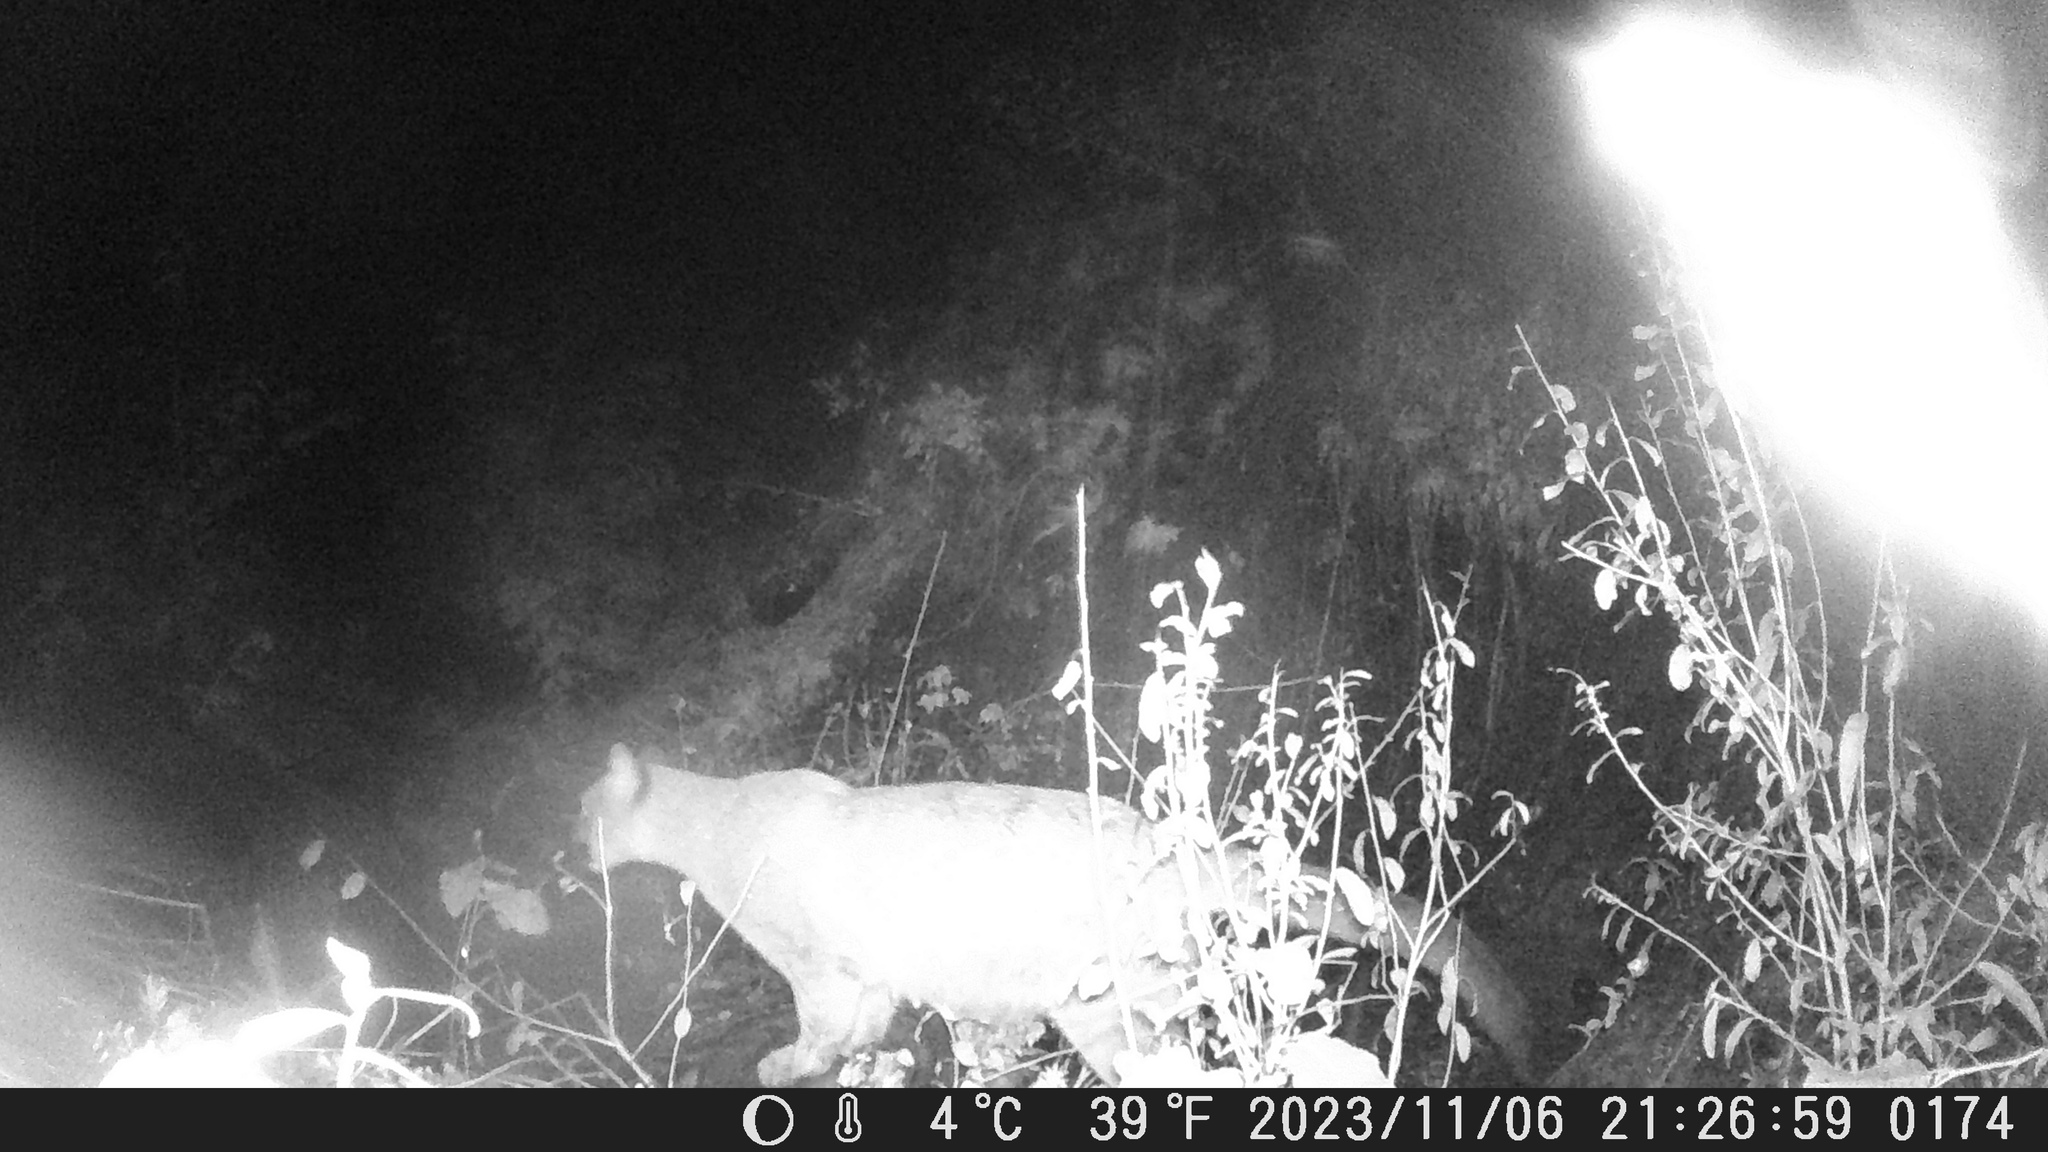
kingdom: Animalia
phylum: Chordata
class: Mammalia
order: Carnivora
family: Felidae
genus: Puma
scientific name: Puma concolor
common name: Puma
